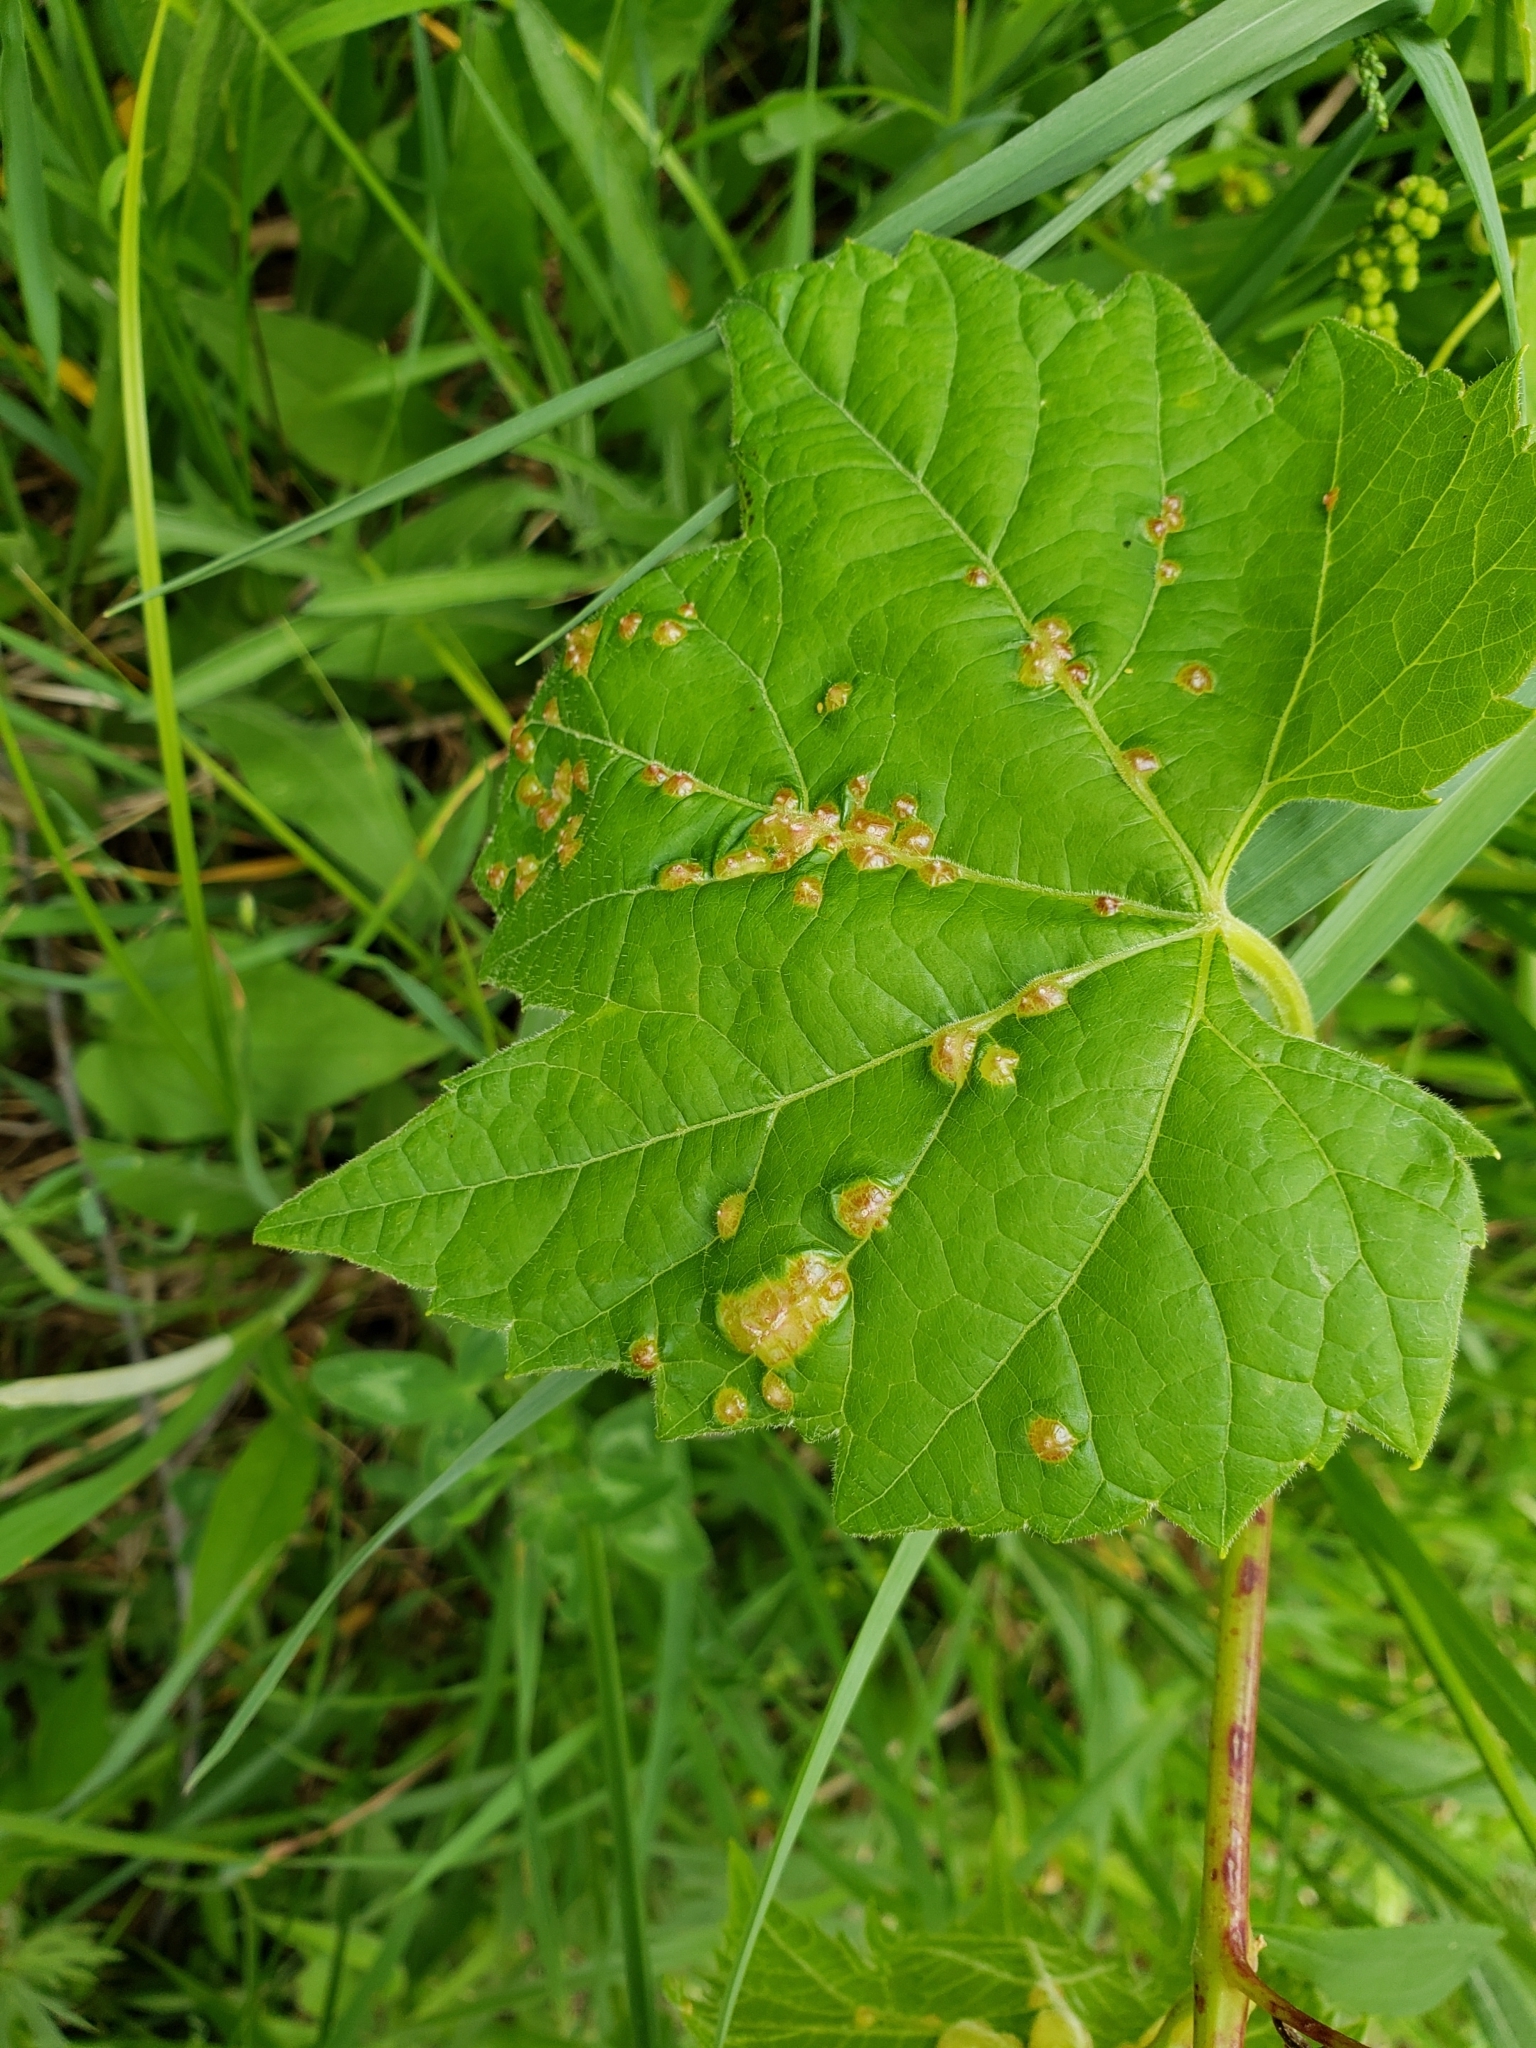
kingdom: Animalia
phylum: Arthropoda
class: Insecta
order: Diptera
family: Cecidomyiidae
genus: Vitisiella
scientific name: Vitisiella brevicauda
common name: Grape tumid gallmaker midge
